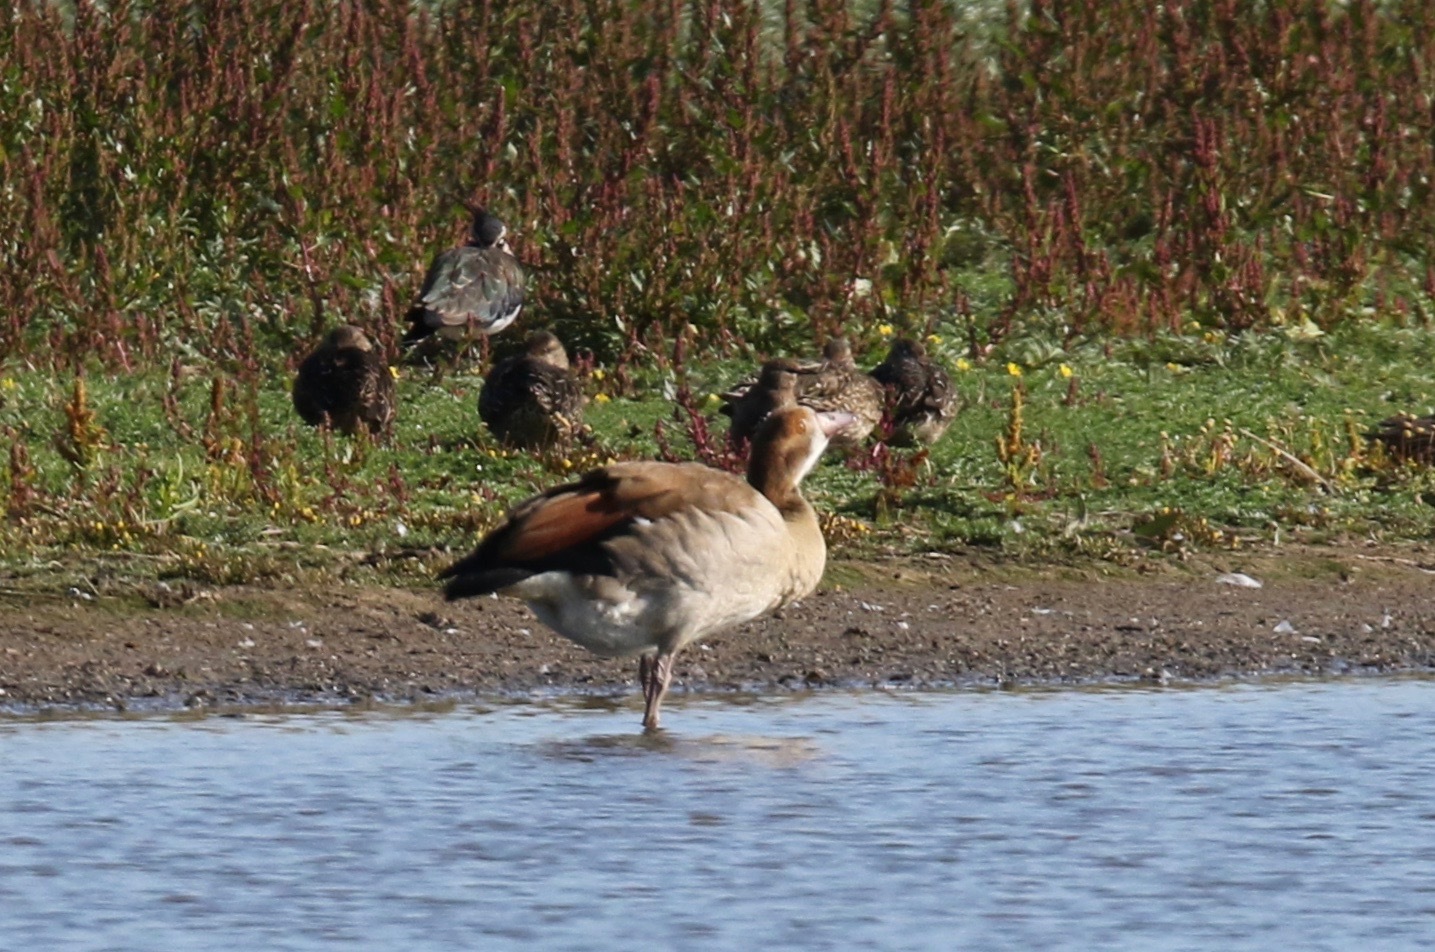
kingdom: Animalia
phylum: Chordata
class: Aves
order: Anseriformes
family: Anatidae
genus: Alopochen
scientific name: Alopochen aegyptiaca
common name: Egyptian goose
